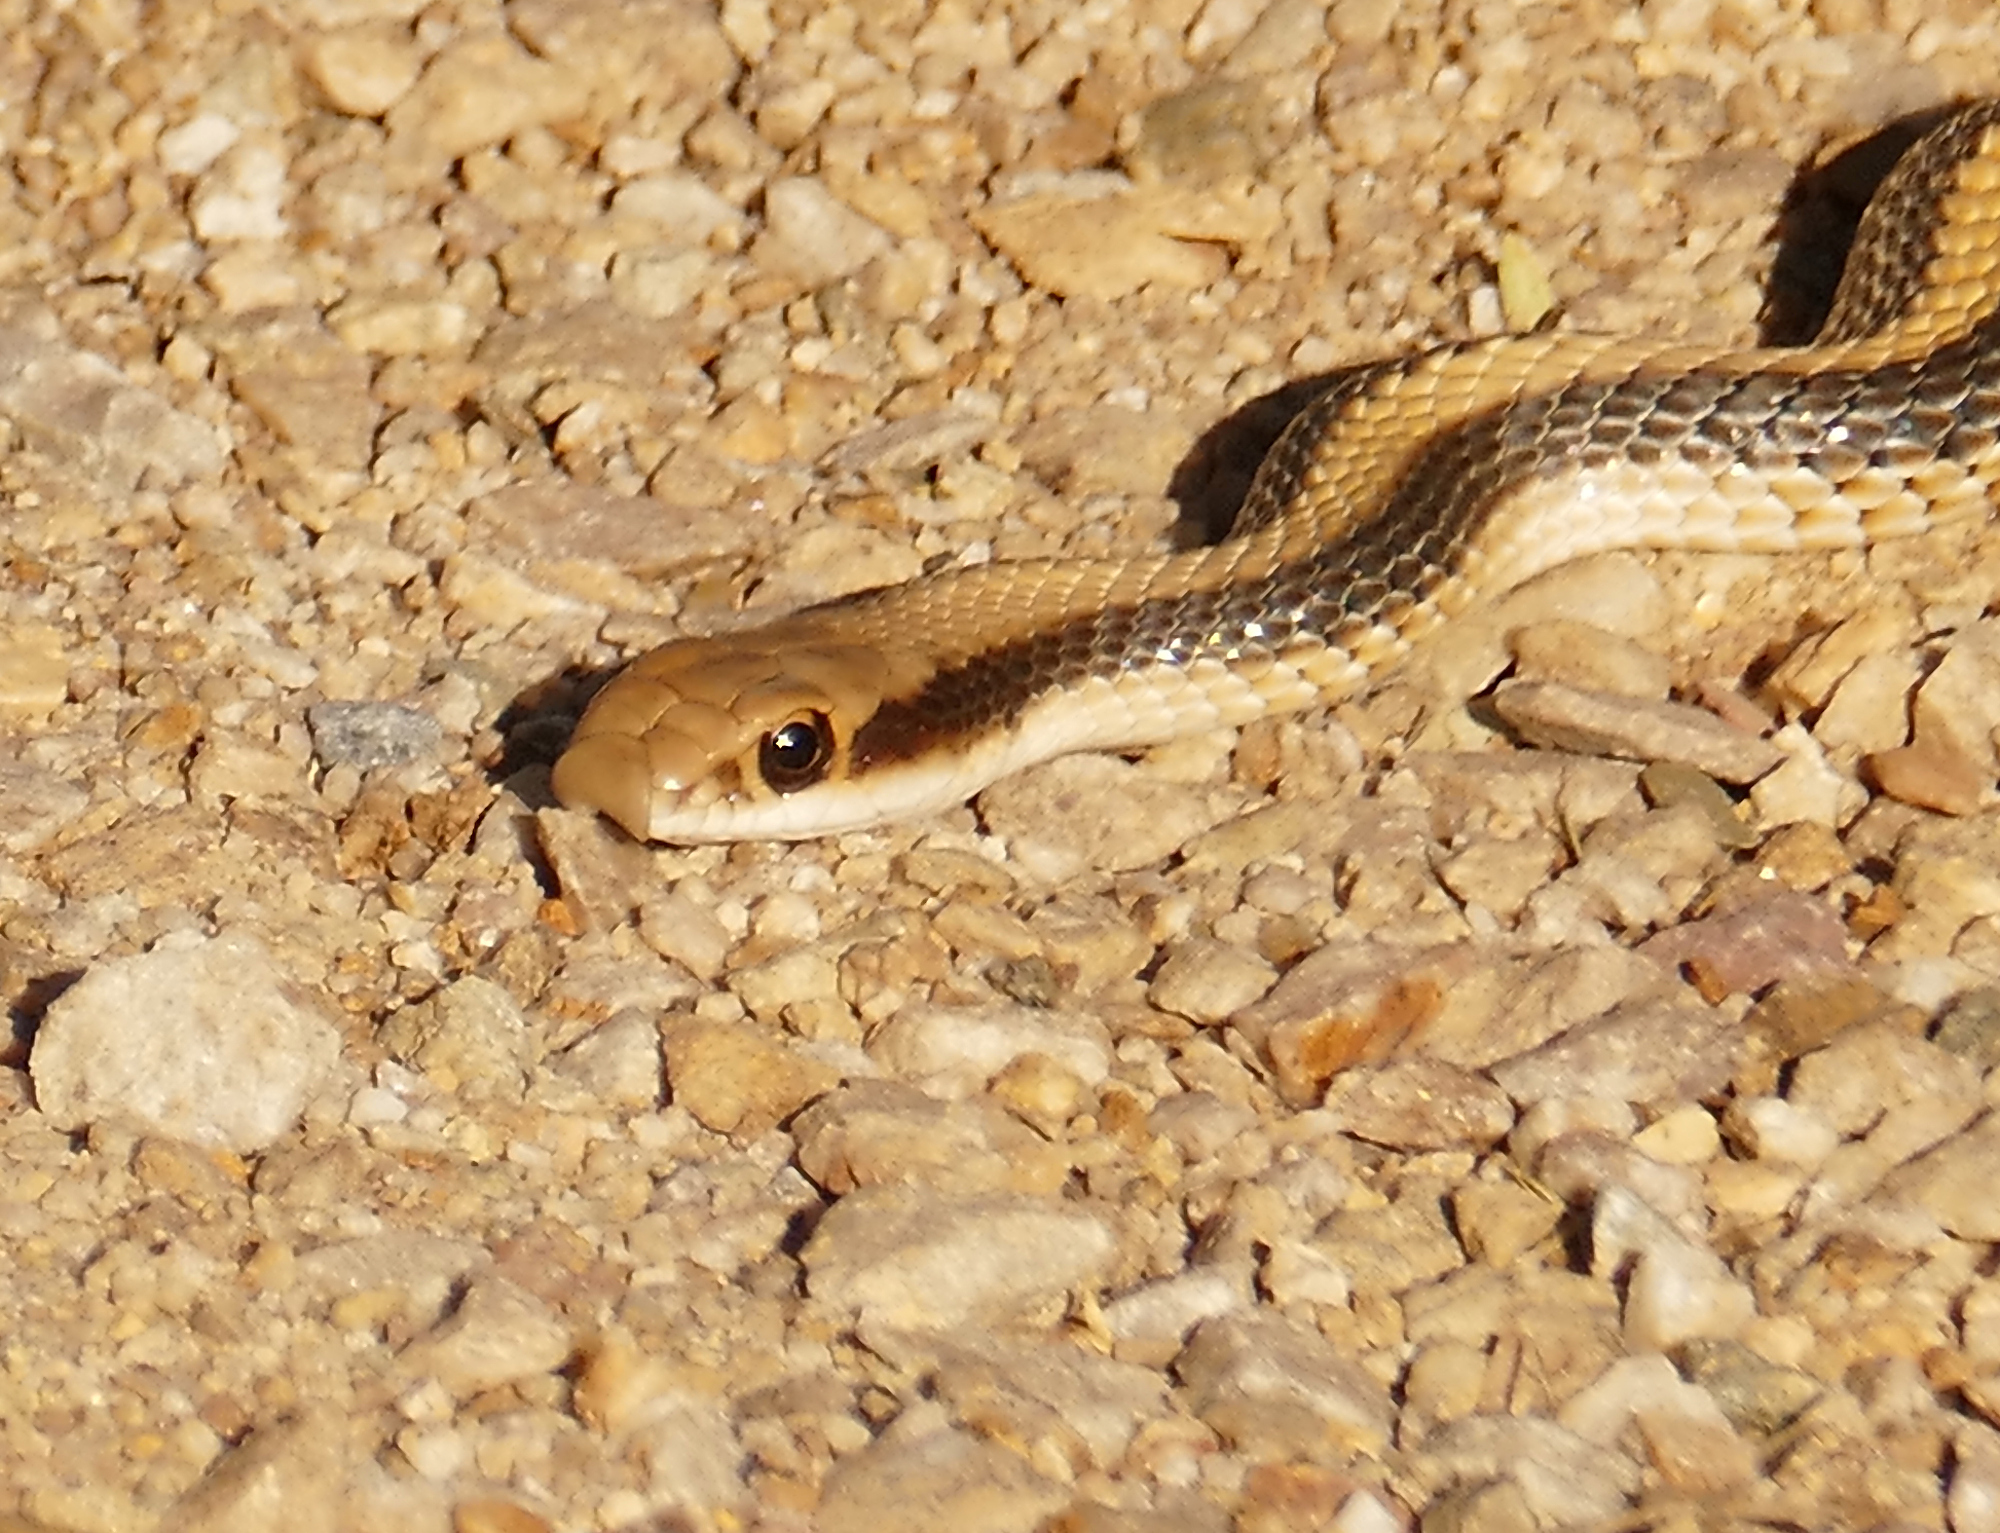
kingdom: Animalia
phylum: Chordata
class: Squamata
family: Colubridae
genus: Salvadora
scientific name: Salvadora hexalepis
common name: Western patchnose snake
